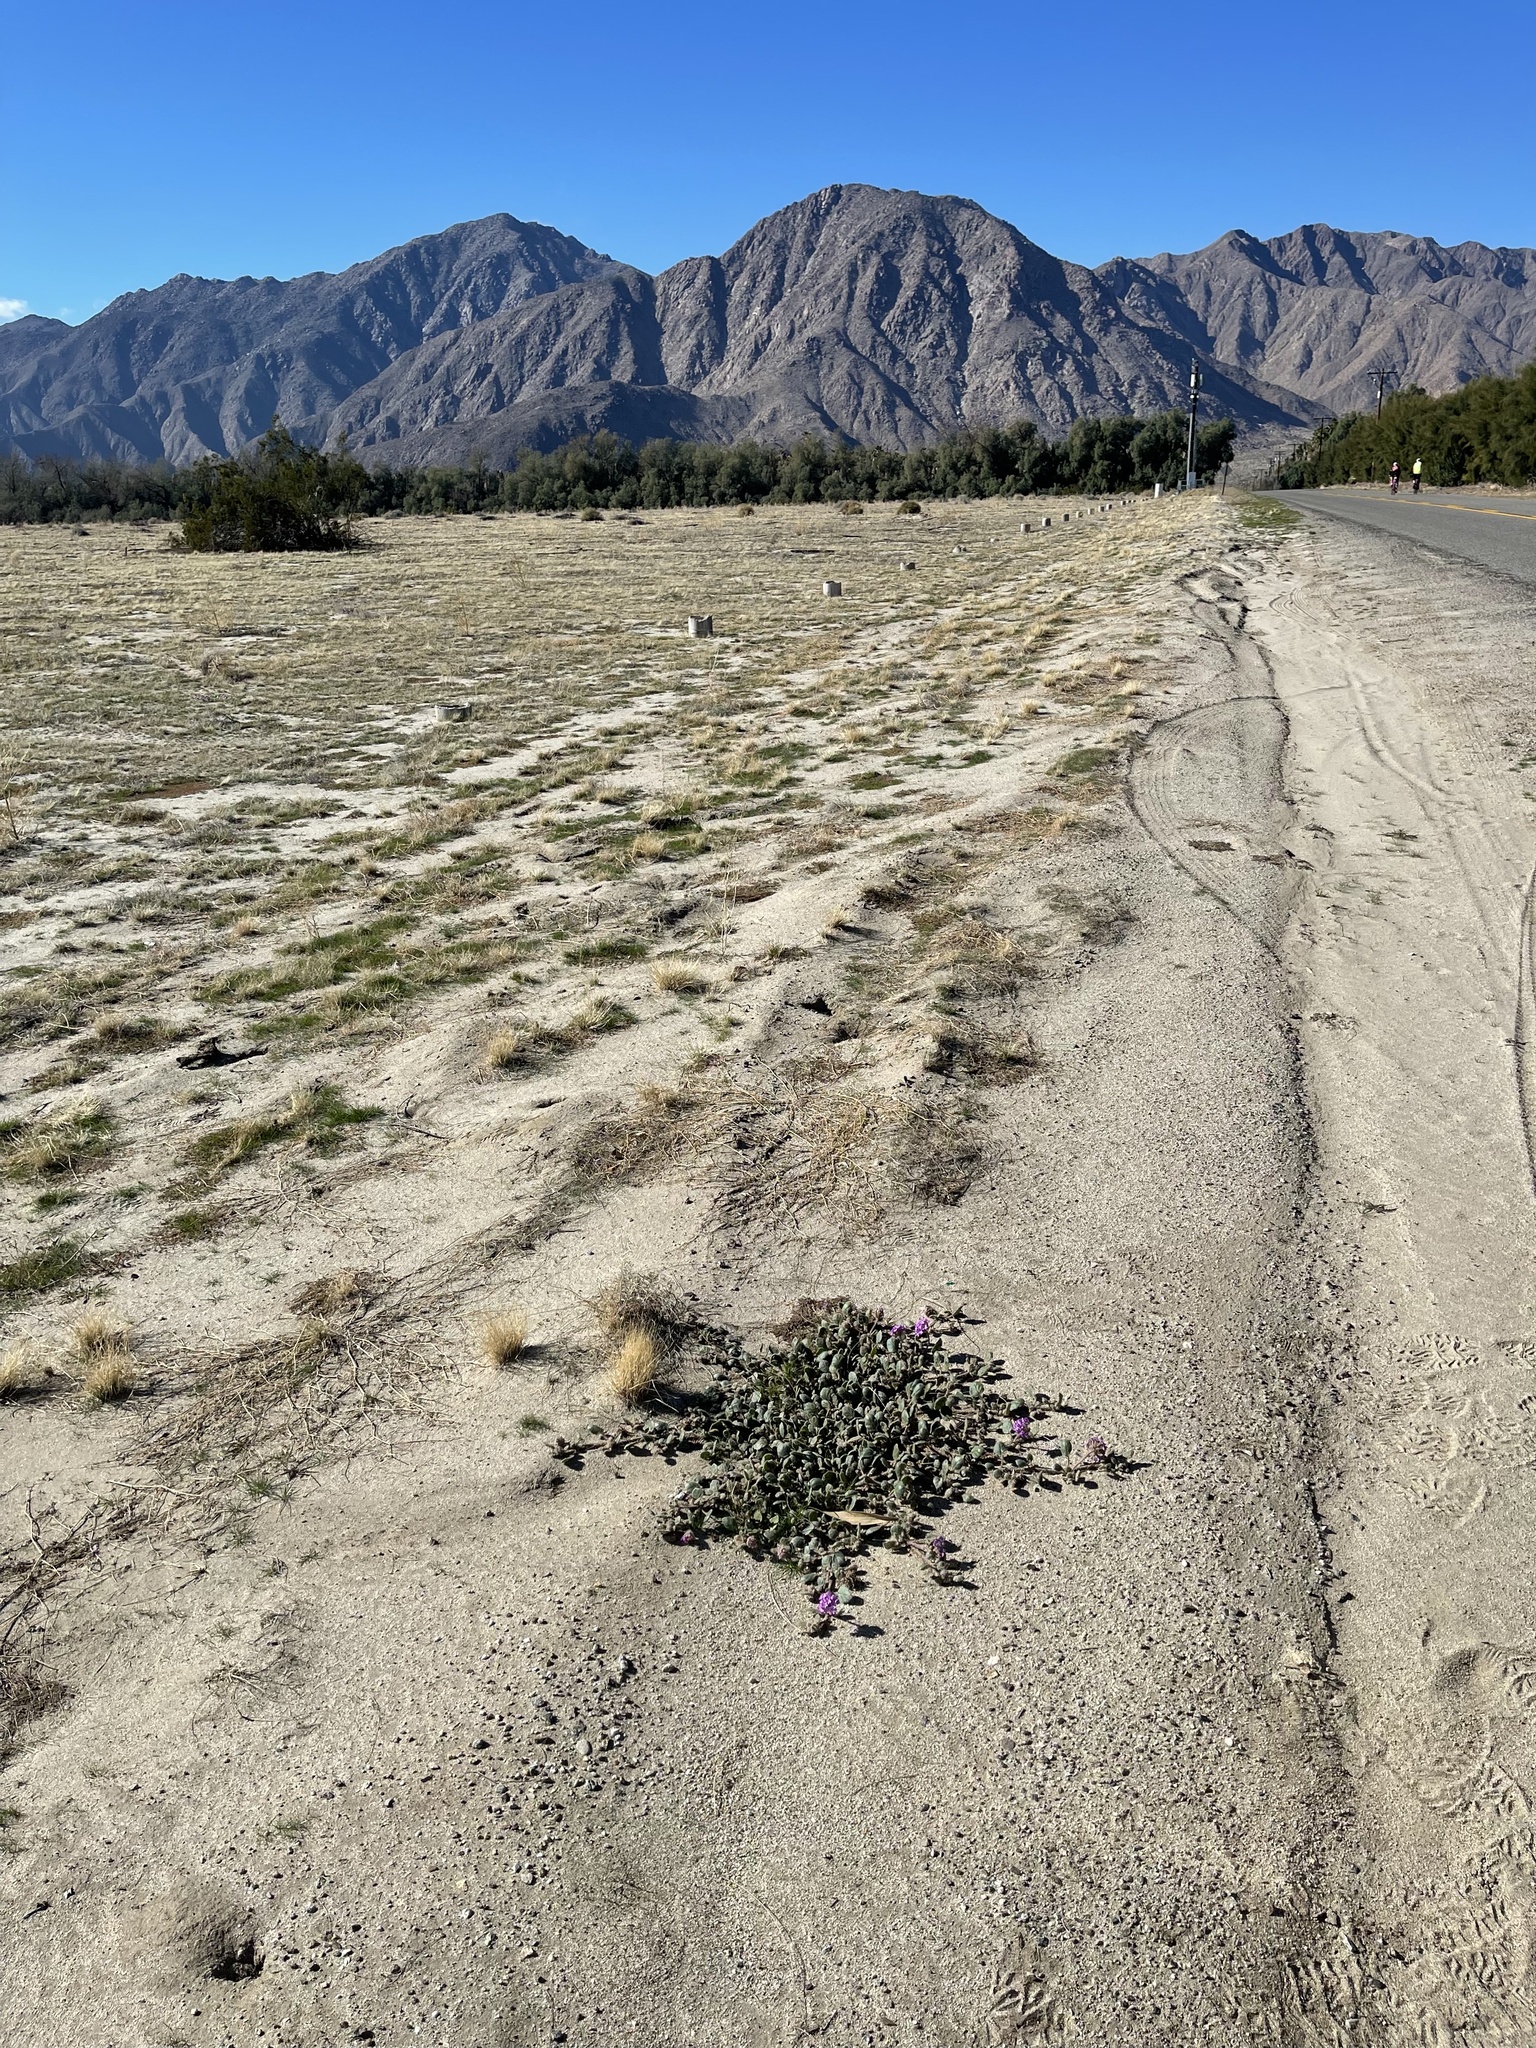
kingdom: Plantae
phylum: Tracheophyta
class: Magnoliopsida
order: Caryophyllales
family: Nyctaginaceae
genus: Abronia
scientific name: Abronia villosa
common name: Desert sand-verbena
